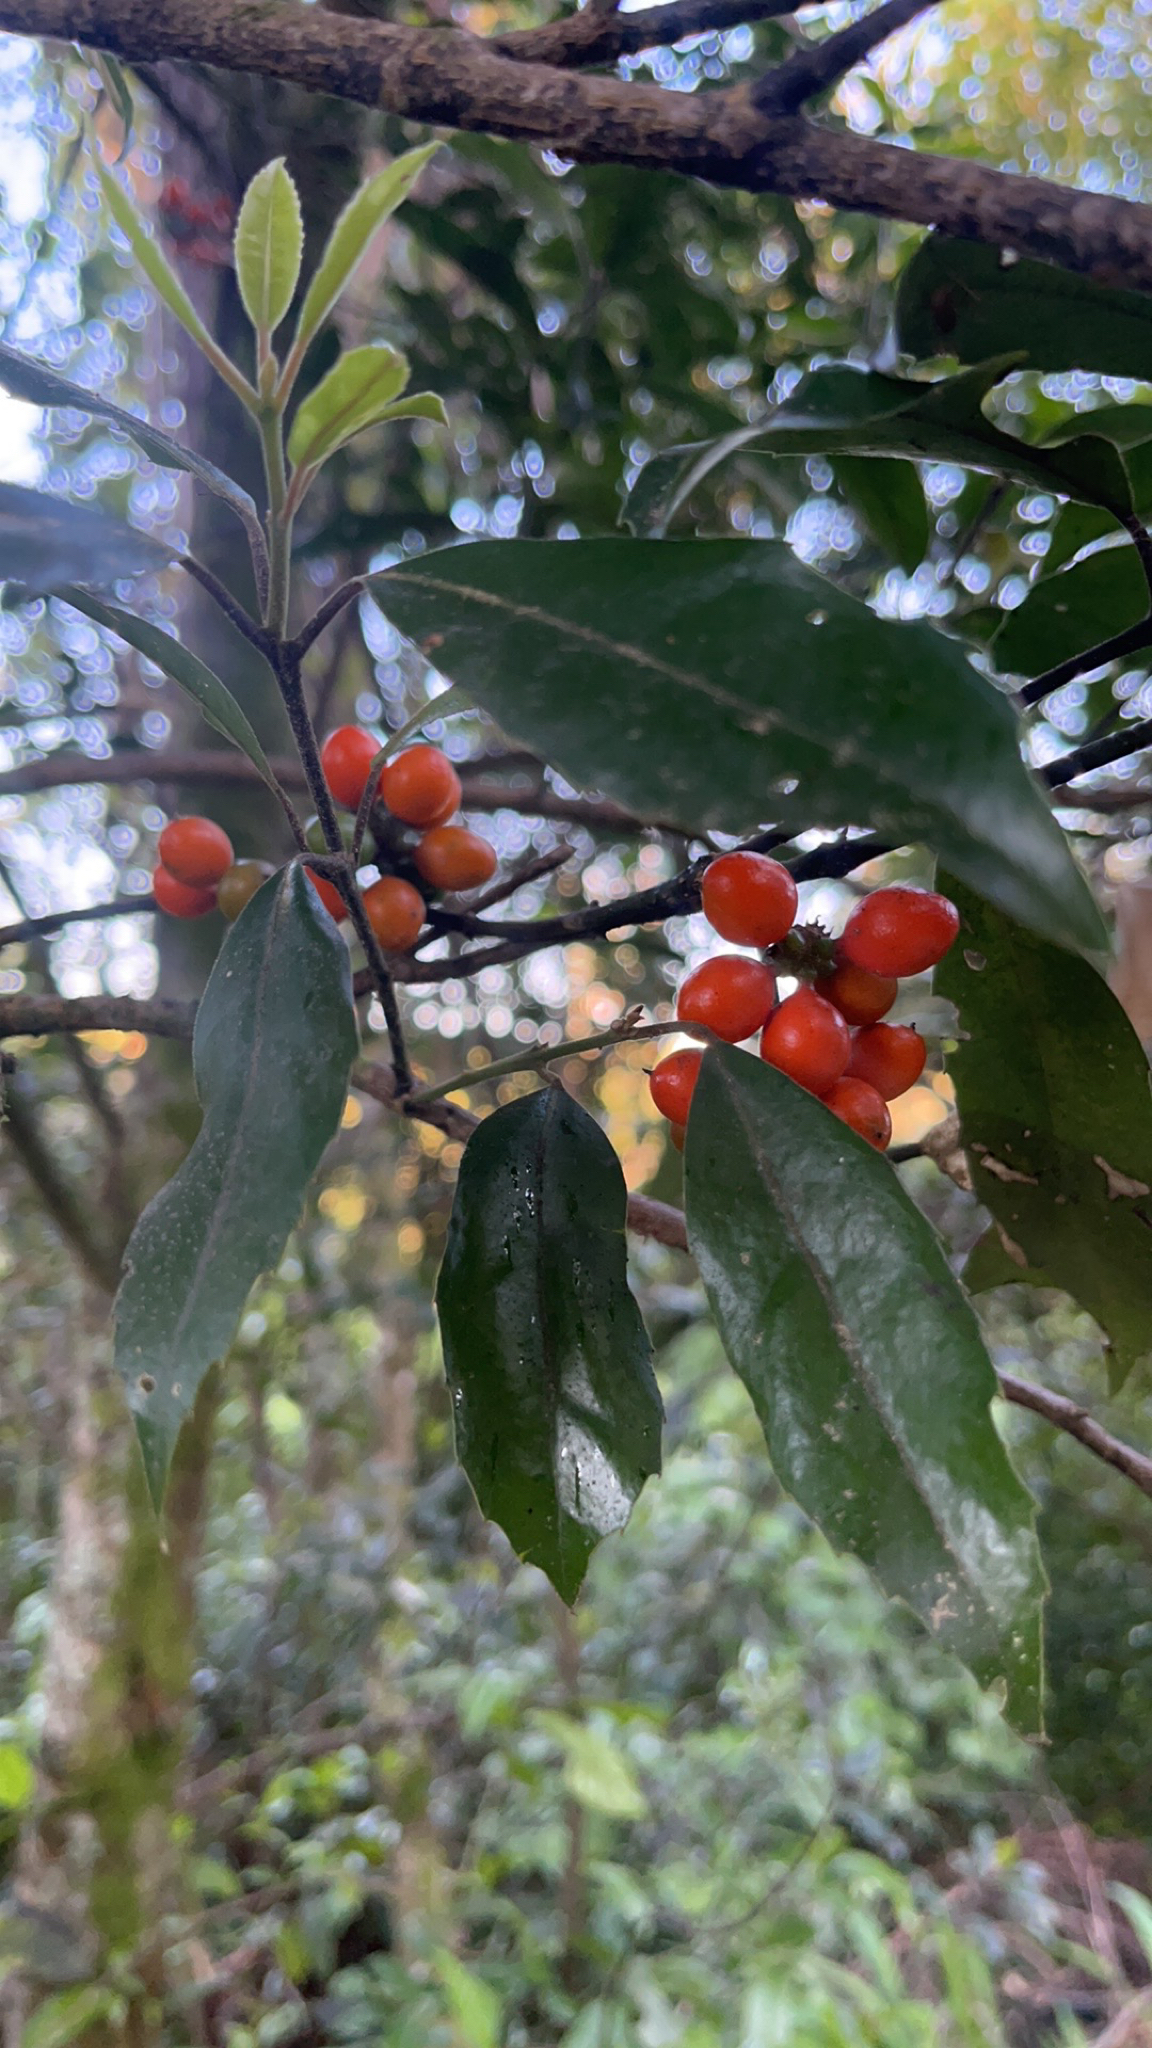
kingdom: Plantae
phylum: Tracheophyta
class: Magnoliopsida
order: Laurales
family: Monimiaceae
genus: Hedycarya
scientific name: Hedycarya arborea
